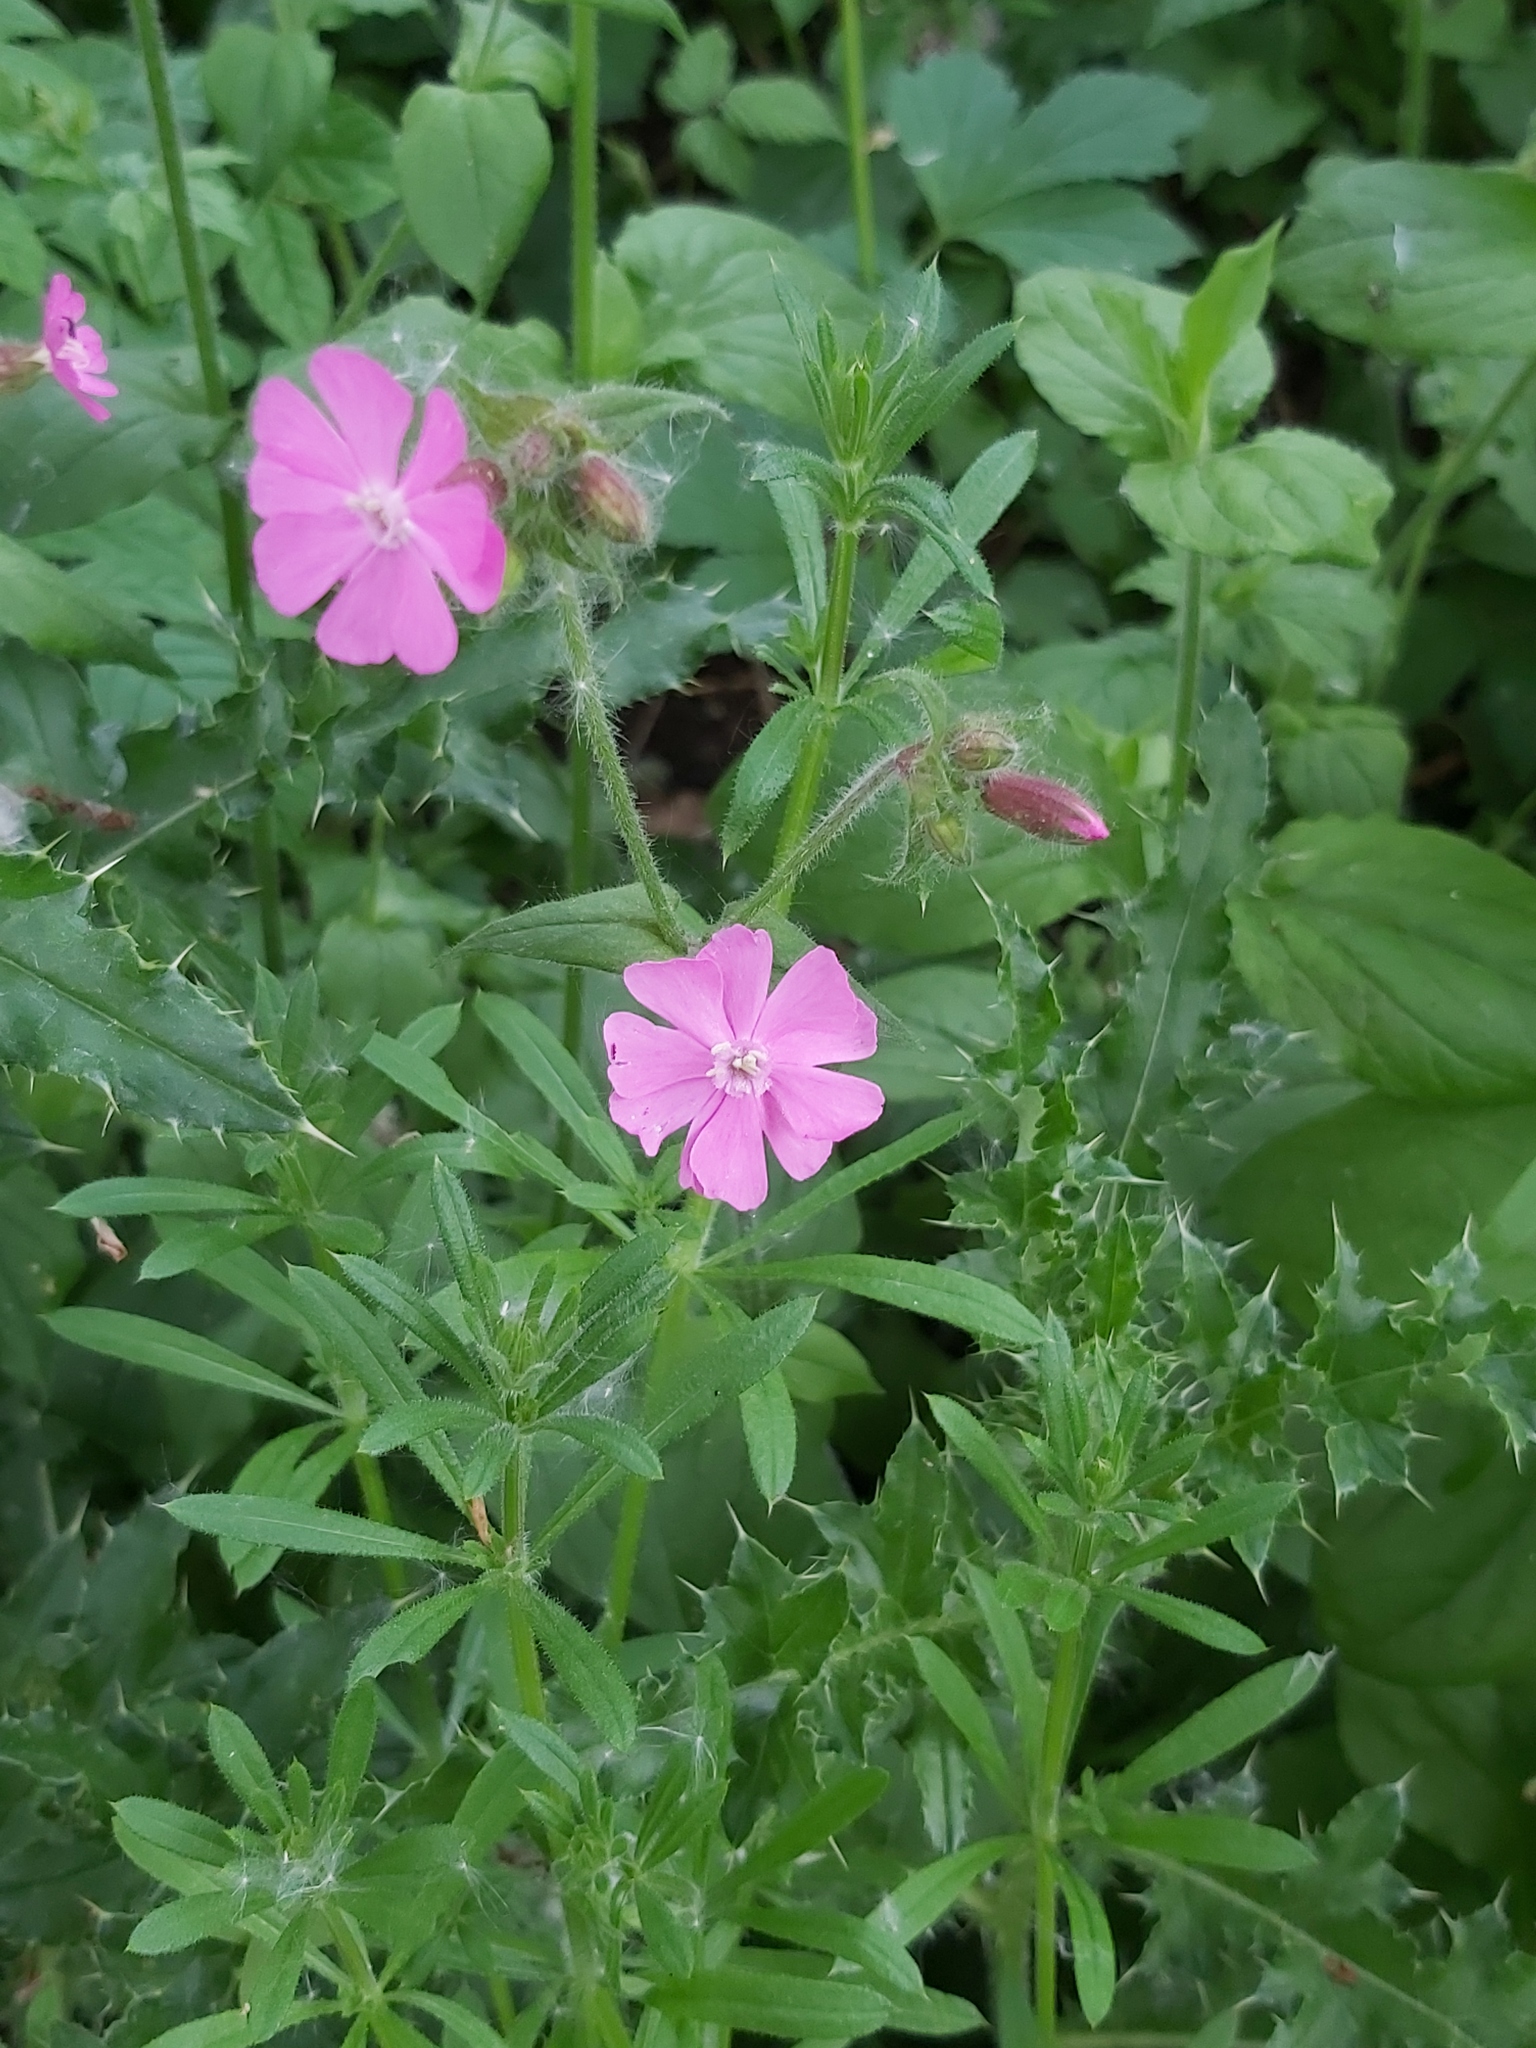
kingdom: Plantae
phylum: Tracheophyta
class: Magnoliopsida
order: Caryophyllales
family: Caryophyllaceae
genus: Silene
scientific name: Silene dioica
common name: Red campion
